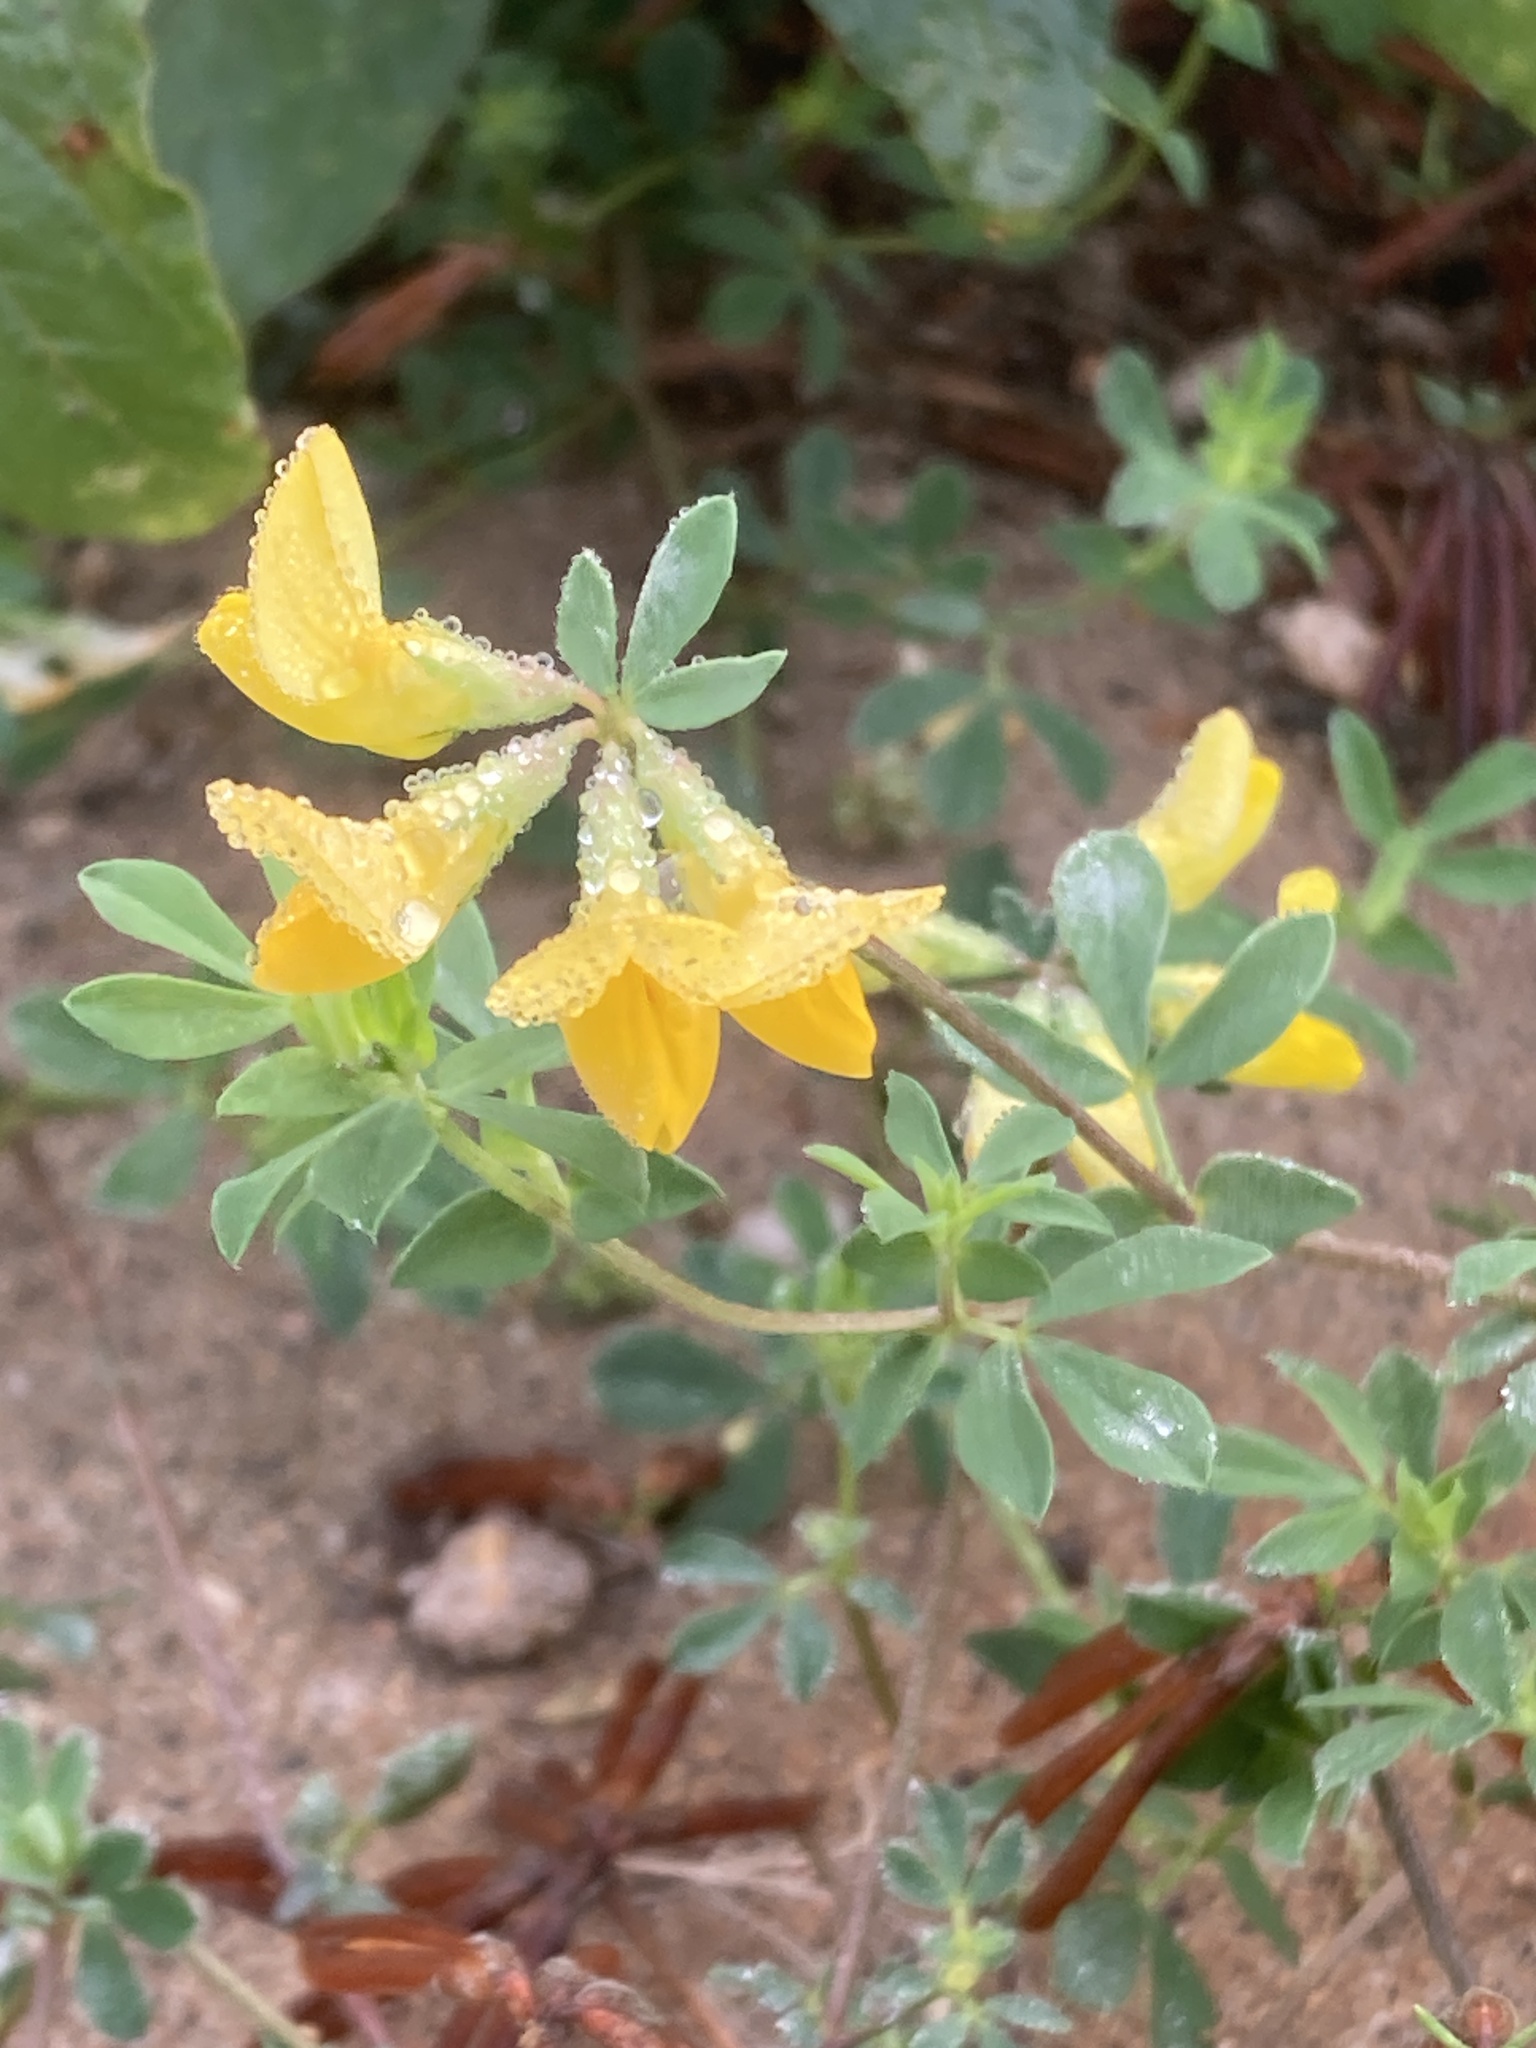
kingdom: Plantae
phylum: Tracheophyta
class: Magnoliopsida
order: Fabales
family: Fabaceae
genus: Lotus
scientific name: Lotus corniculatus
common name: Common bird's-foot-trefoil
